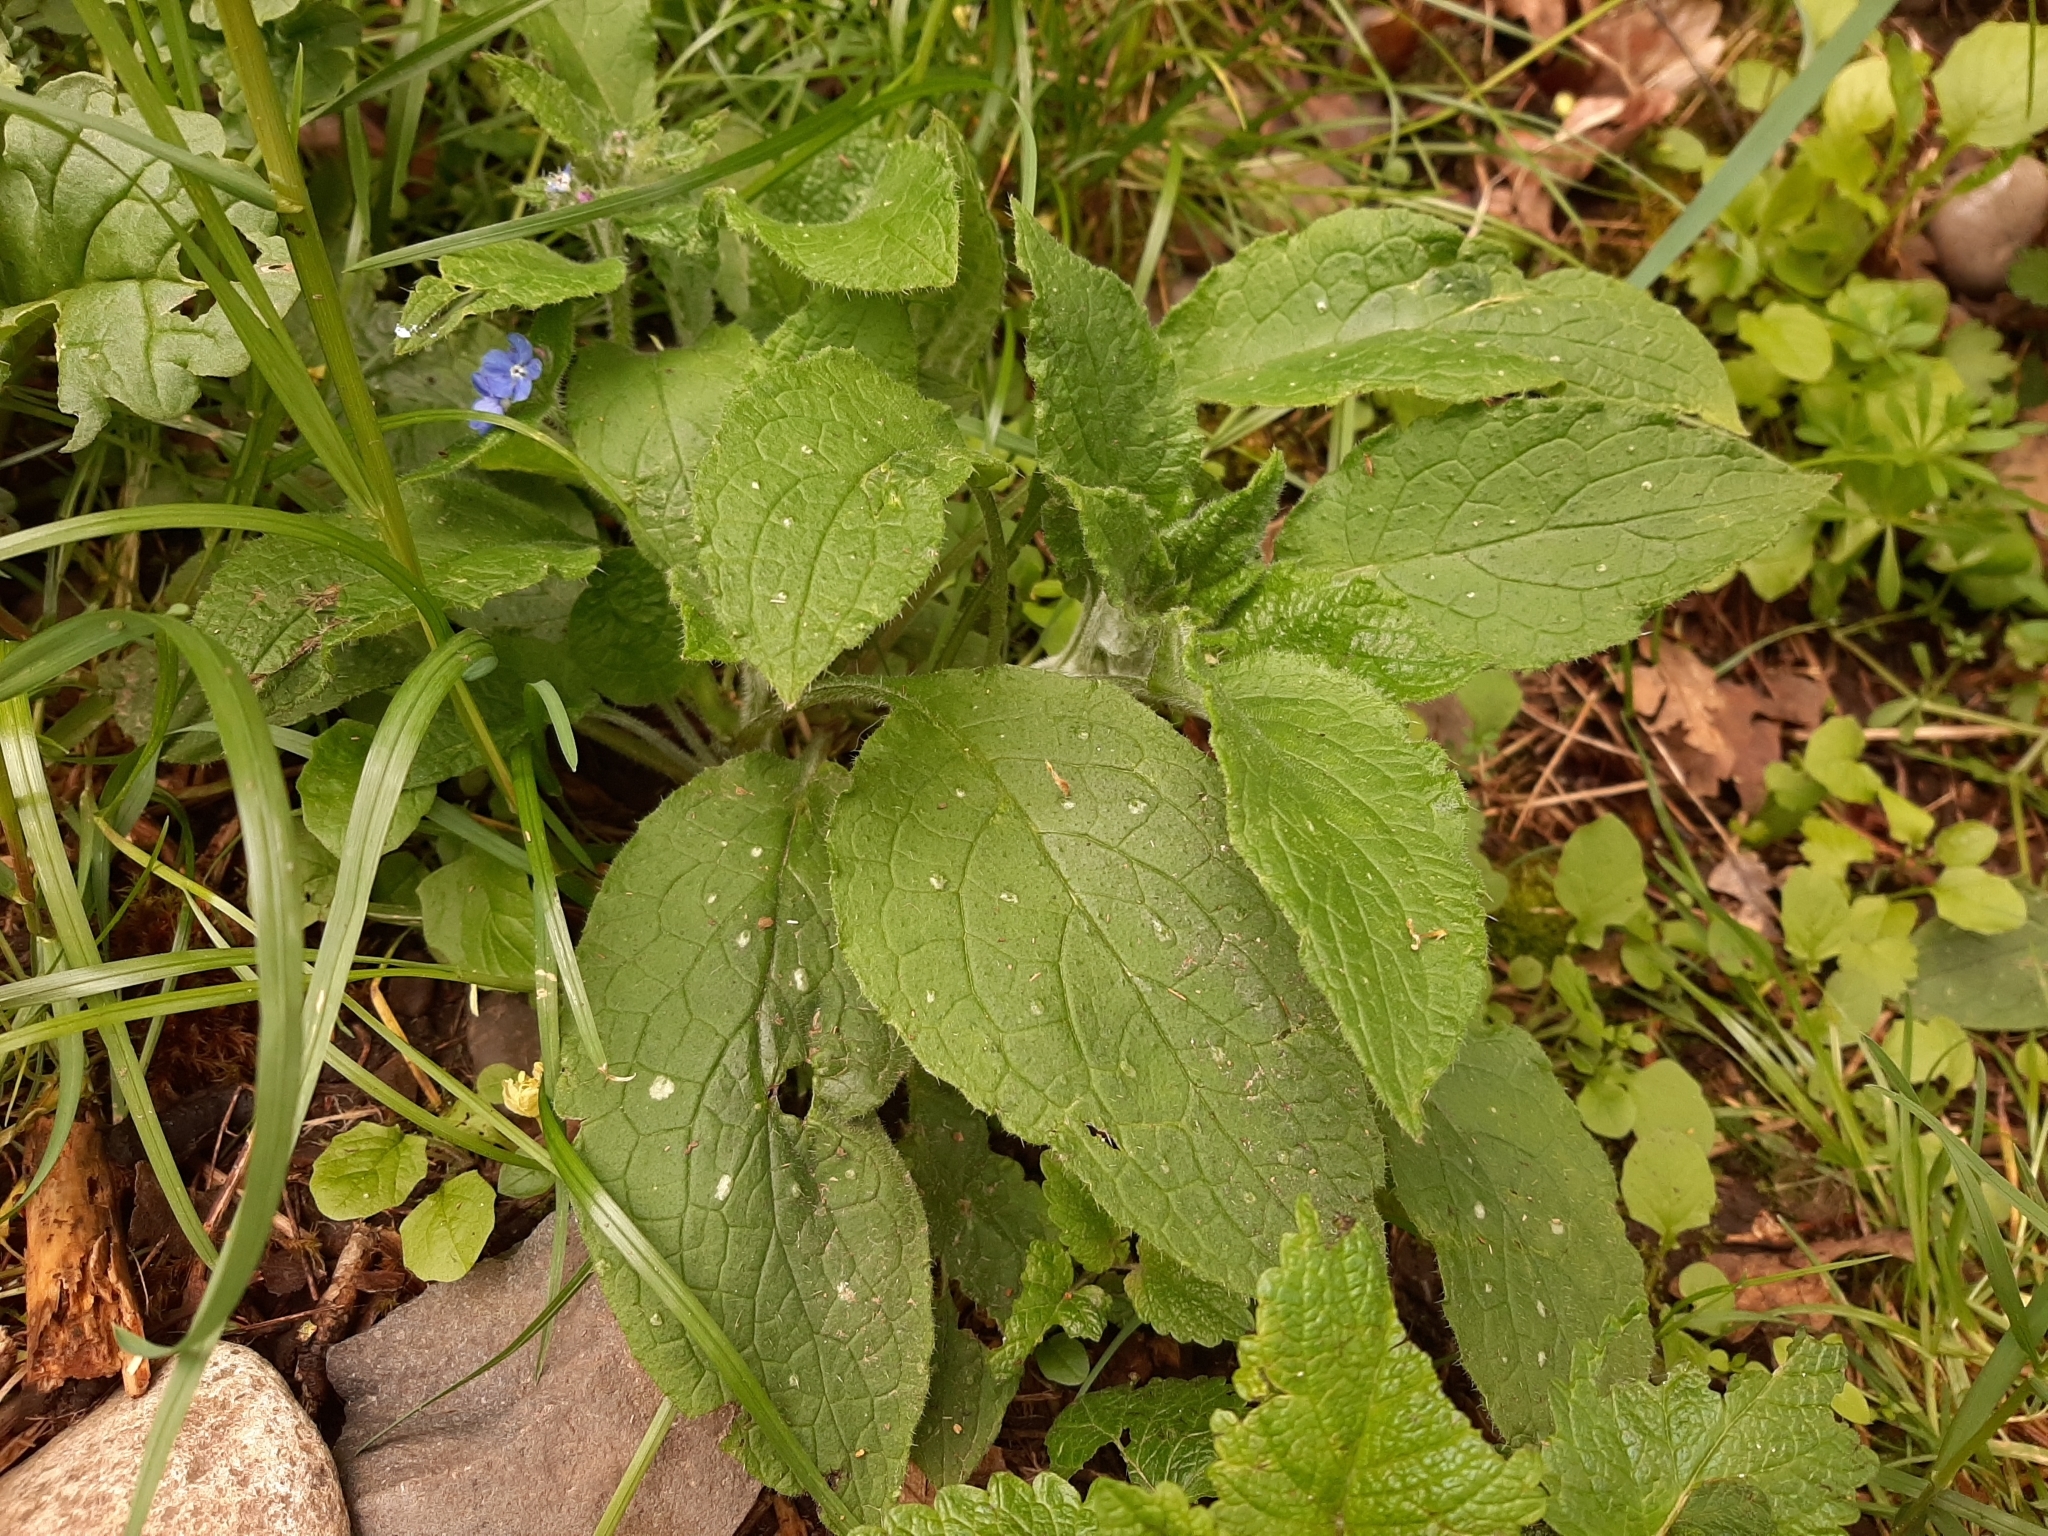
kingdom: Plantae
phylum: Tracheophyta
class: Magnoliopsida
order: Boraginales
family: Boraginaceae
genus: Pentaglottis
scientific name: Pentaglottis sempervirens
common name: Green alkanet
